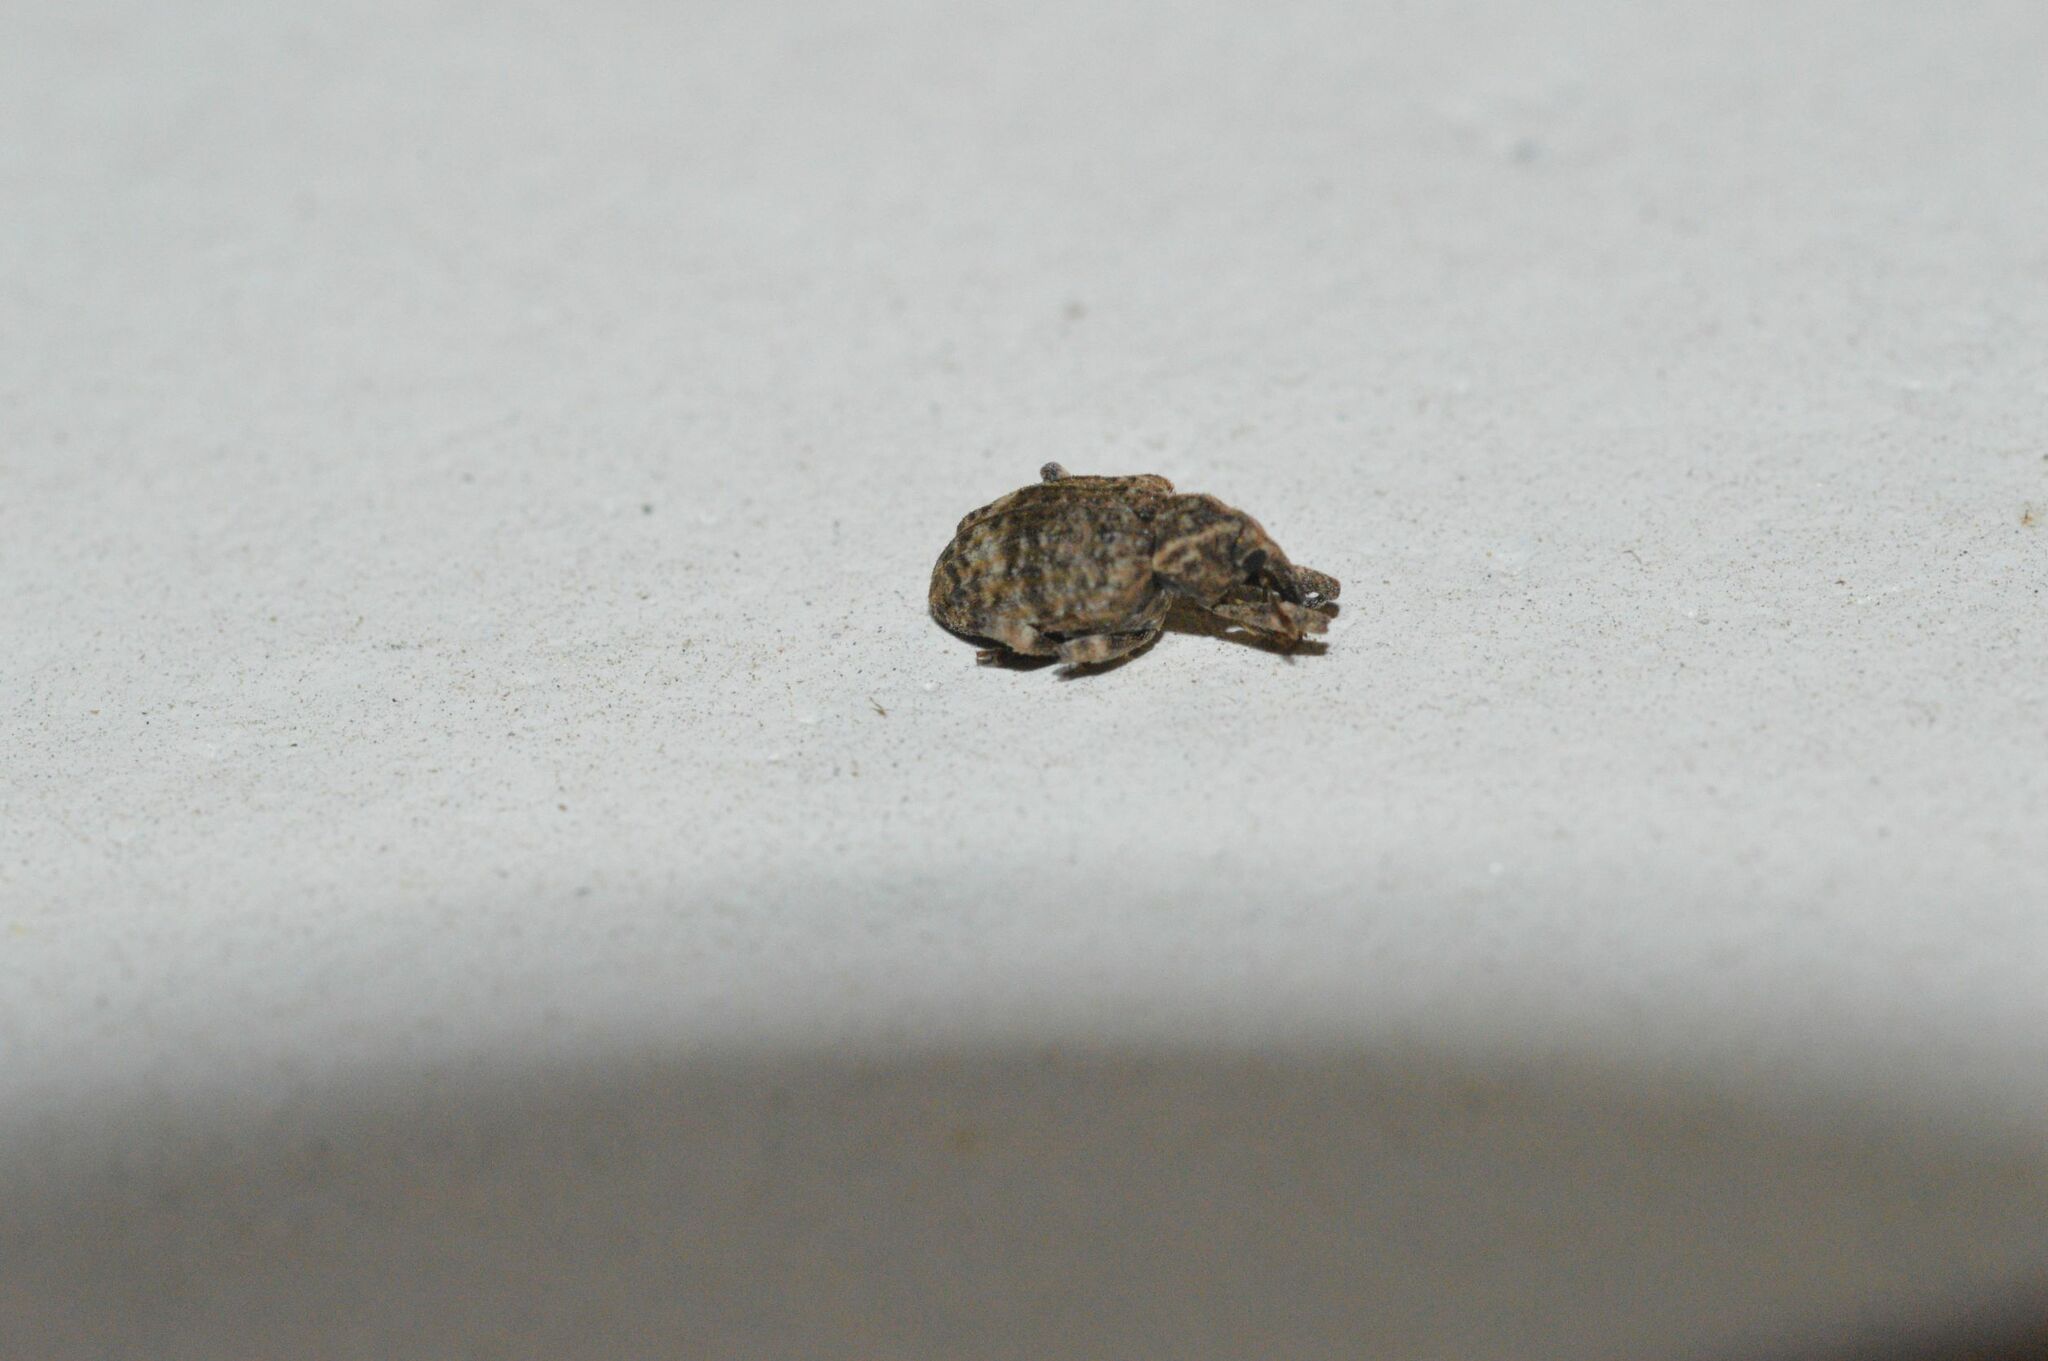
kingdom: Animalia
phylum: Arthropoda
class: Insecta
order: Coleoptera
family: Curculionidae
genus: Conotrachelus
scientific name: Conotrachelus seniculus
